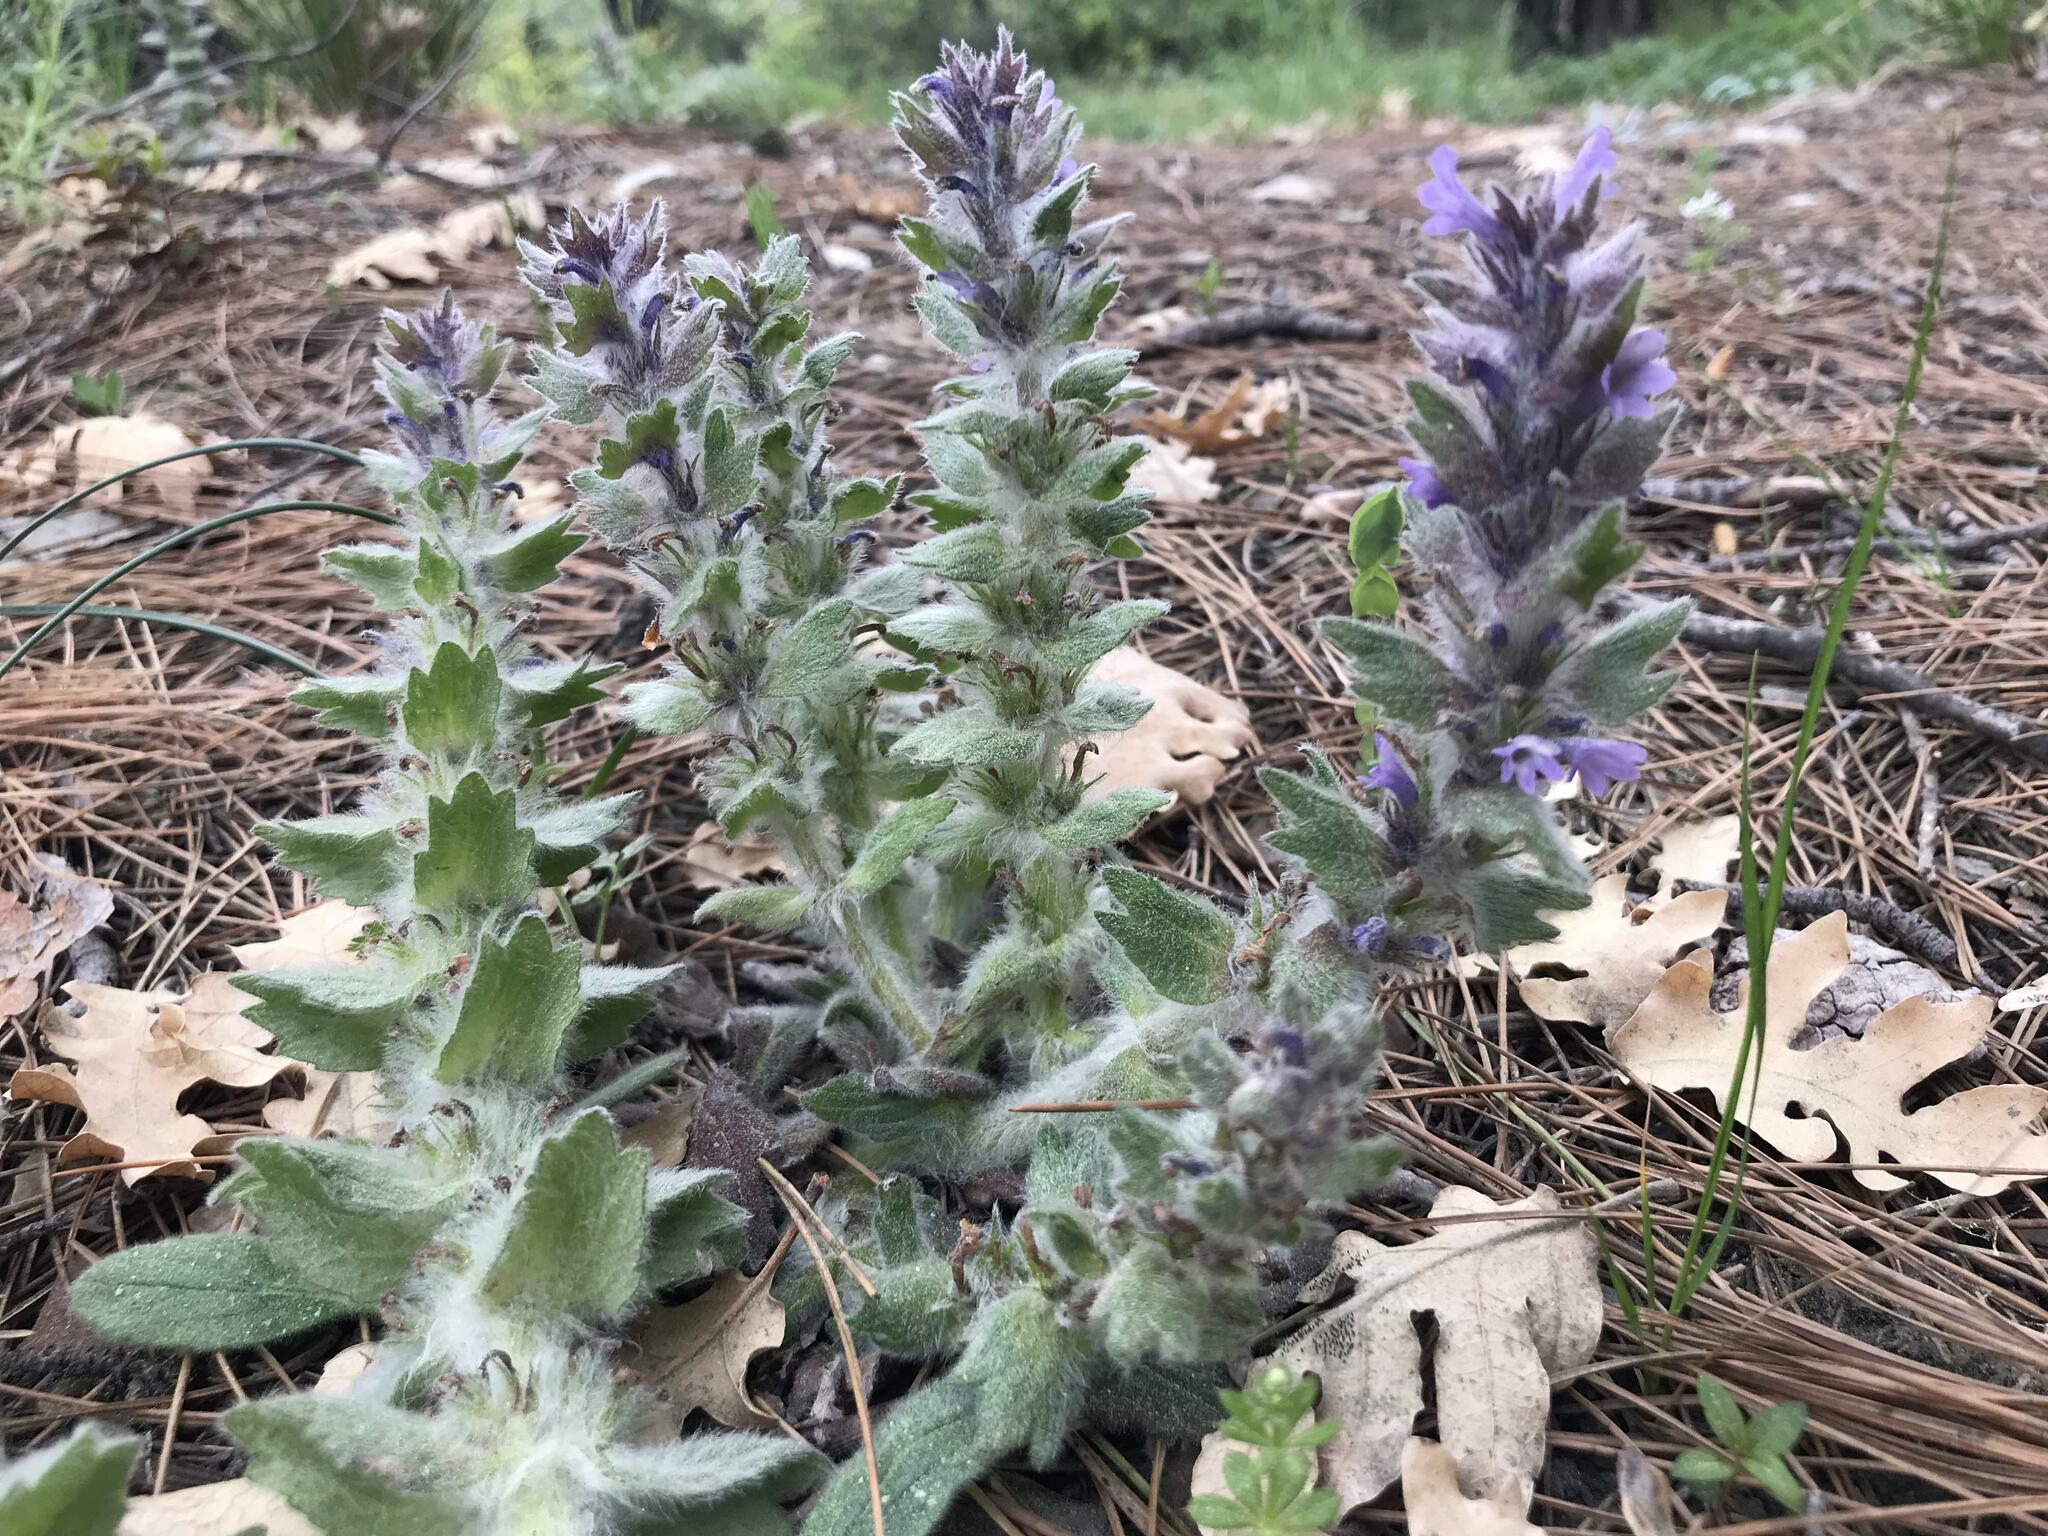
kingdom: Plantae
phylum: Tracheophyta
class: Magnoliopsida
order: Lamiales
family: Lamiaceae
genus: Ajuga
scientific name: Ajuga orientalis
